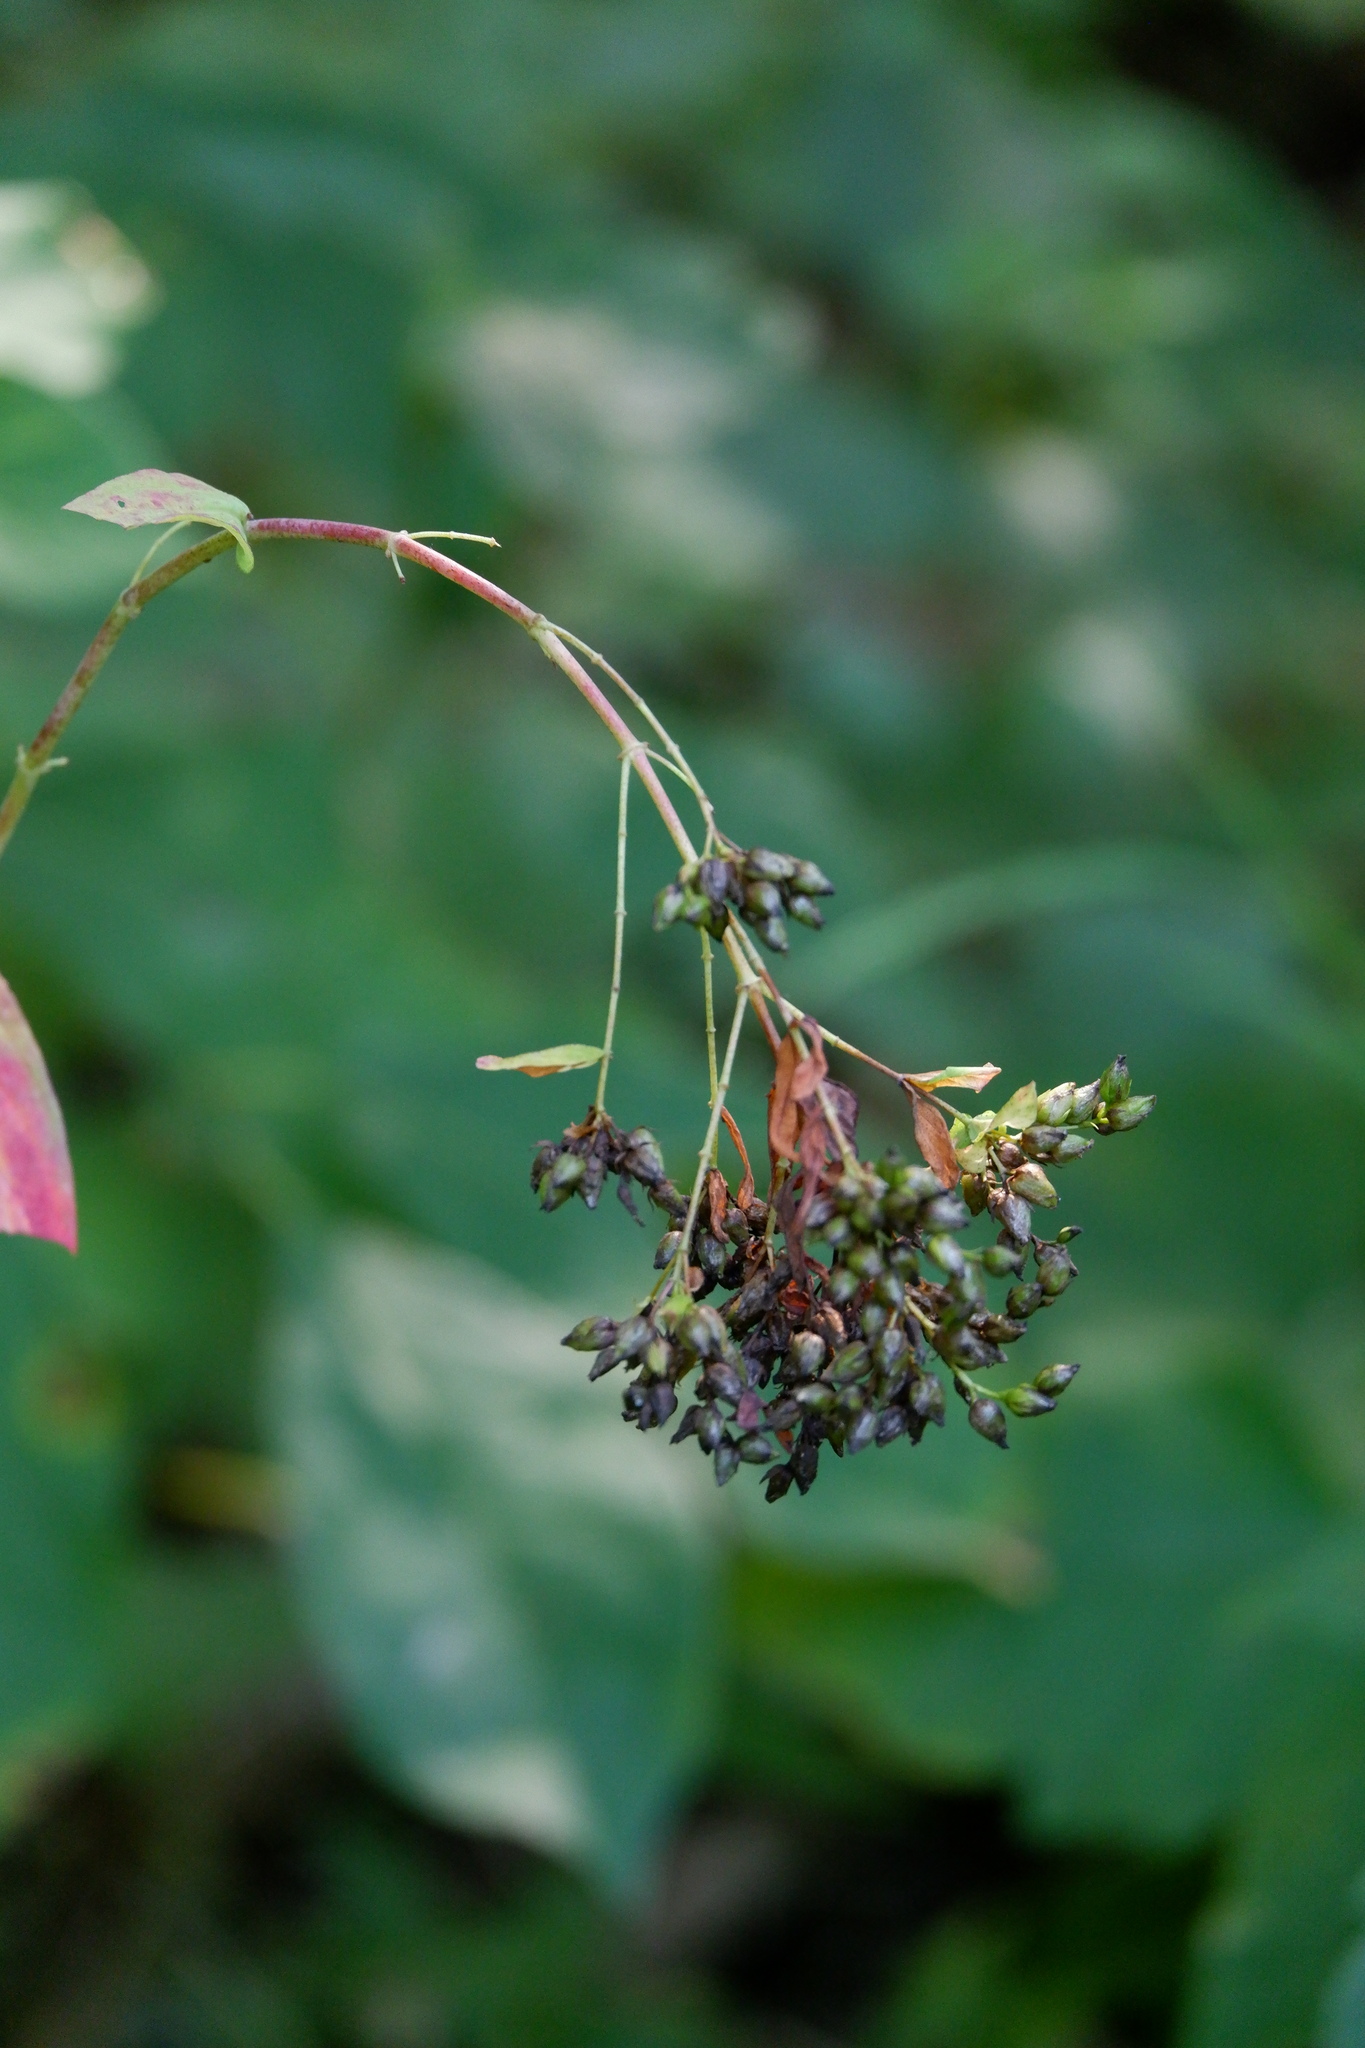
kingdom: Plantae
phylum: Tracheophyta
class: Magnoliopsida
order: Malpighiales
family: Hypericaceae
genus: Hypericum
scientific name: Hypericum punctatum
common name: Spotted st. john's-wort
